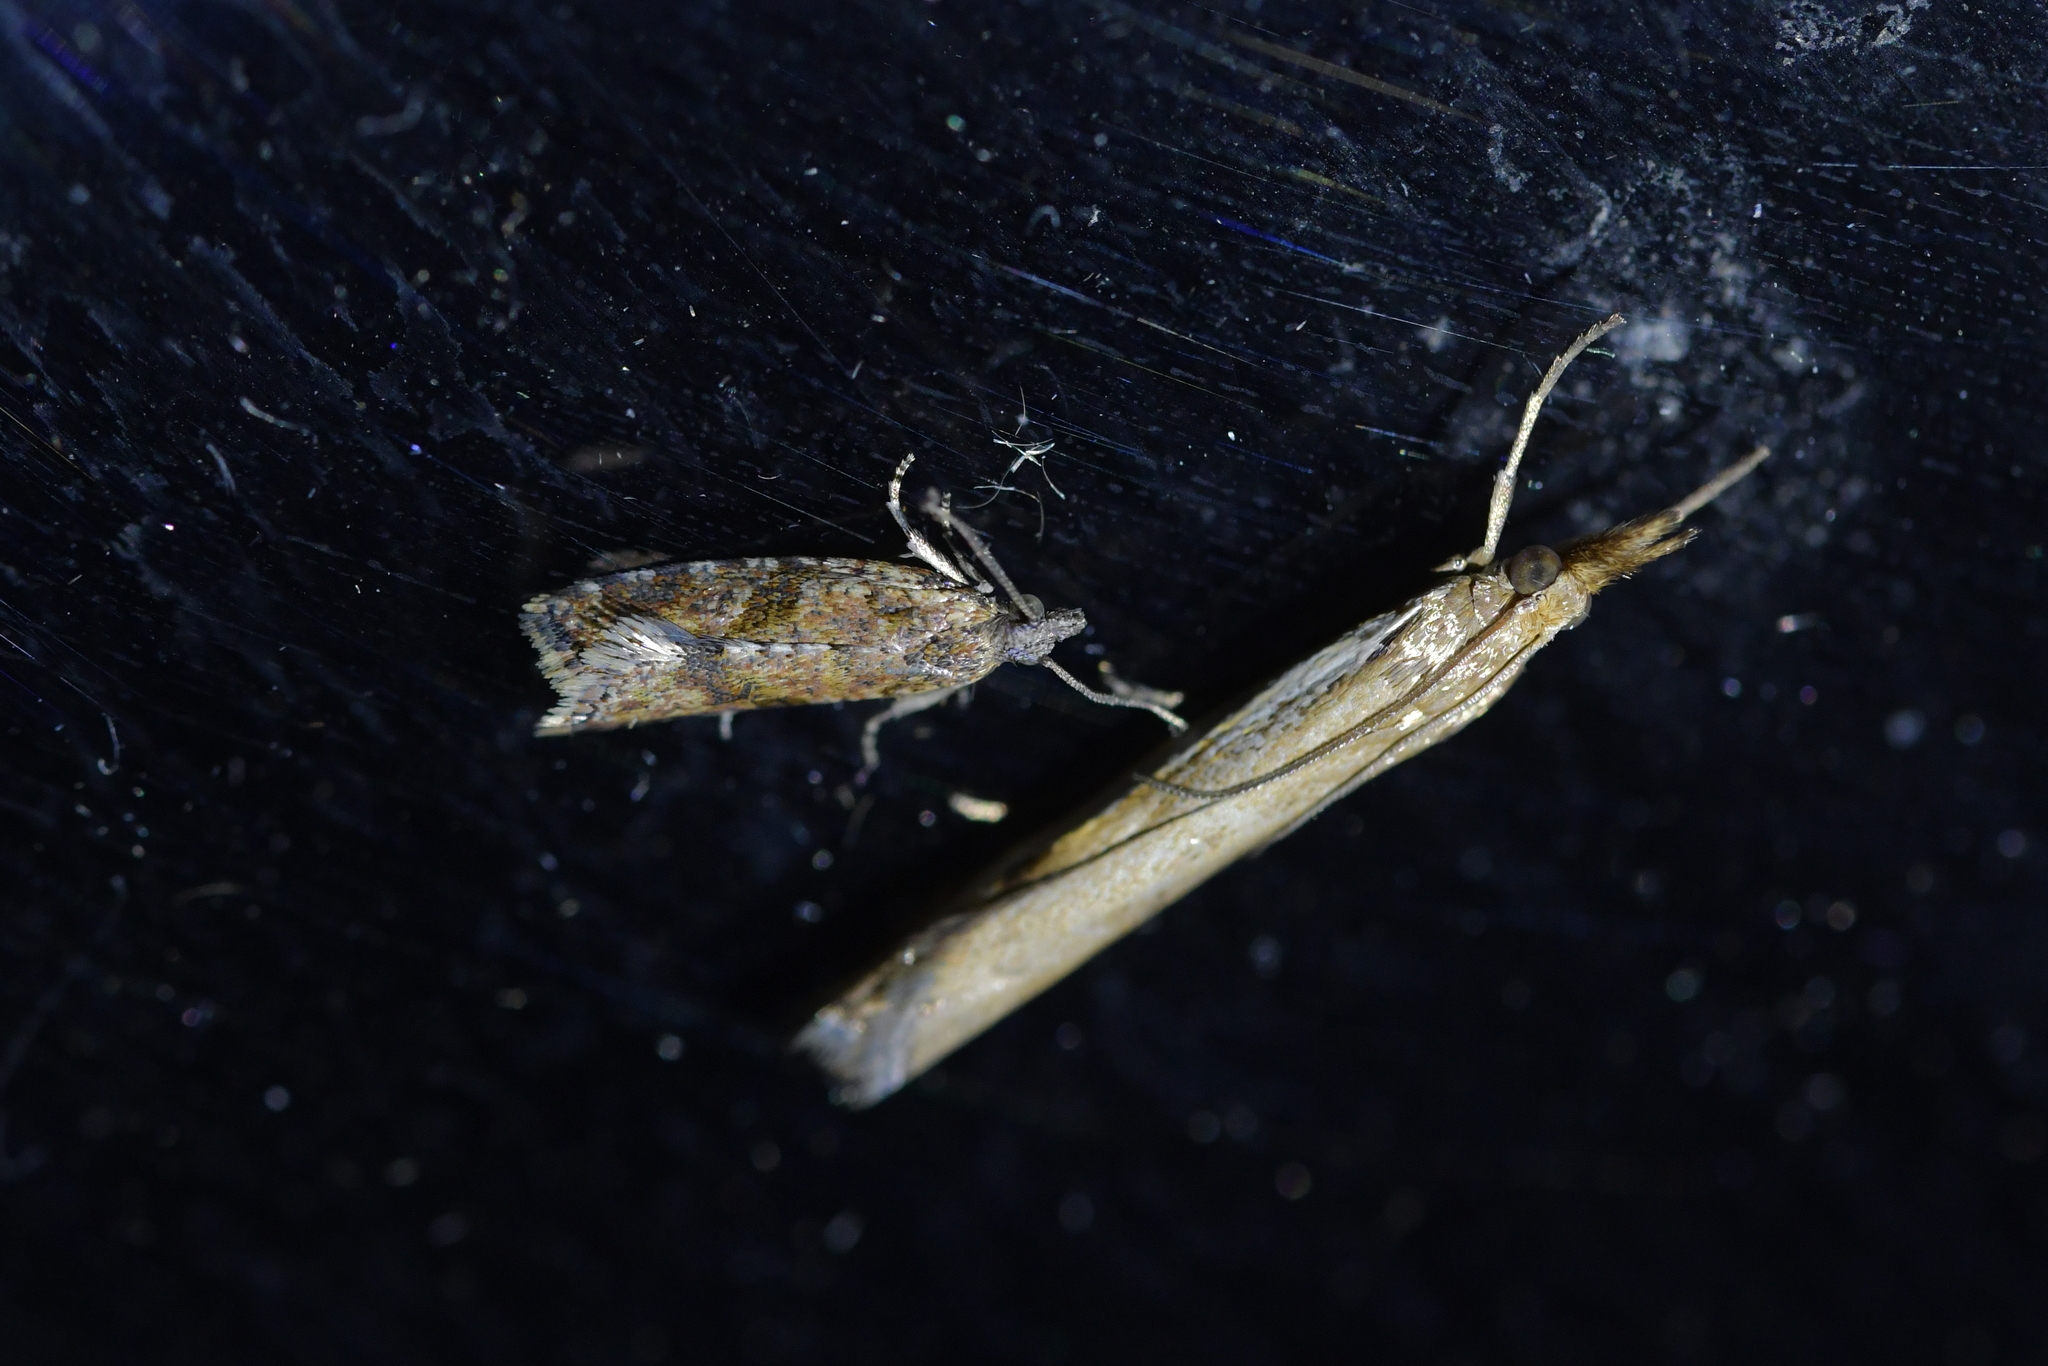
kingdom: Animalia
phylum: Arthropoda
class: Insecta
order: Lepidoptera
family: Tortricidae
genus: Capua
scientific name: Capua semiferana
